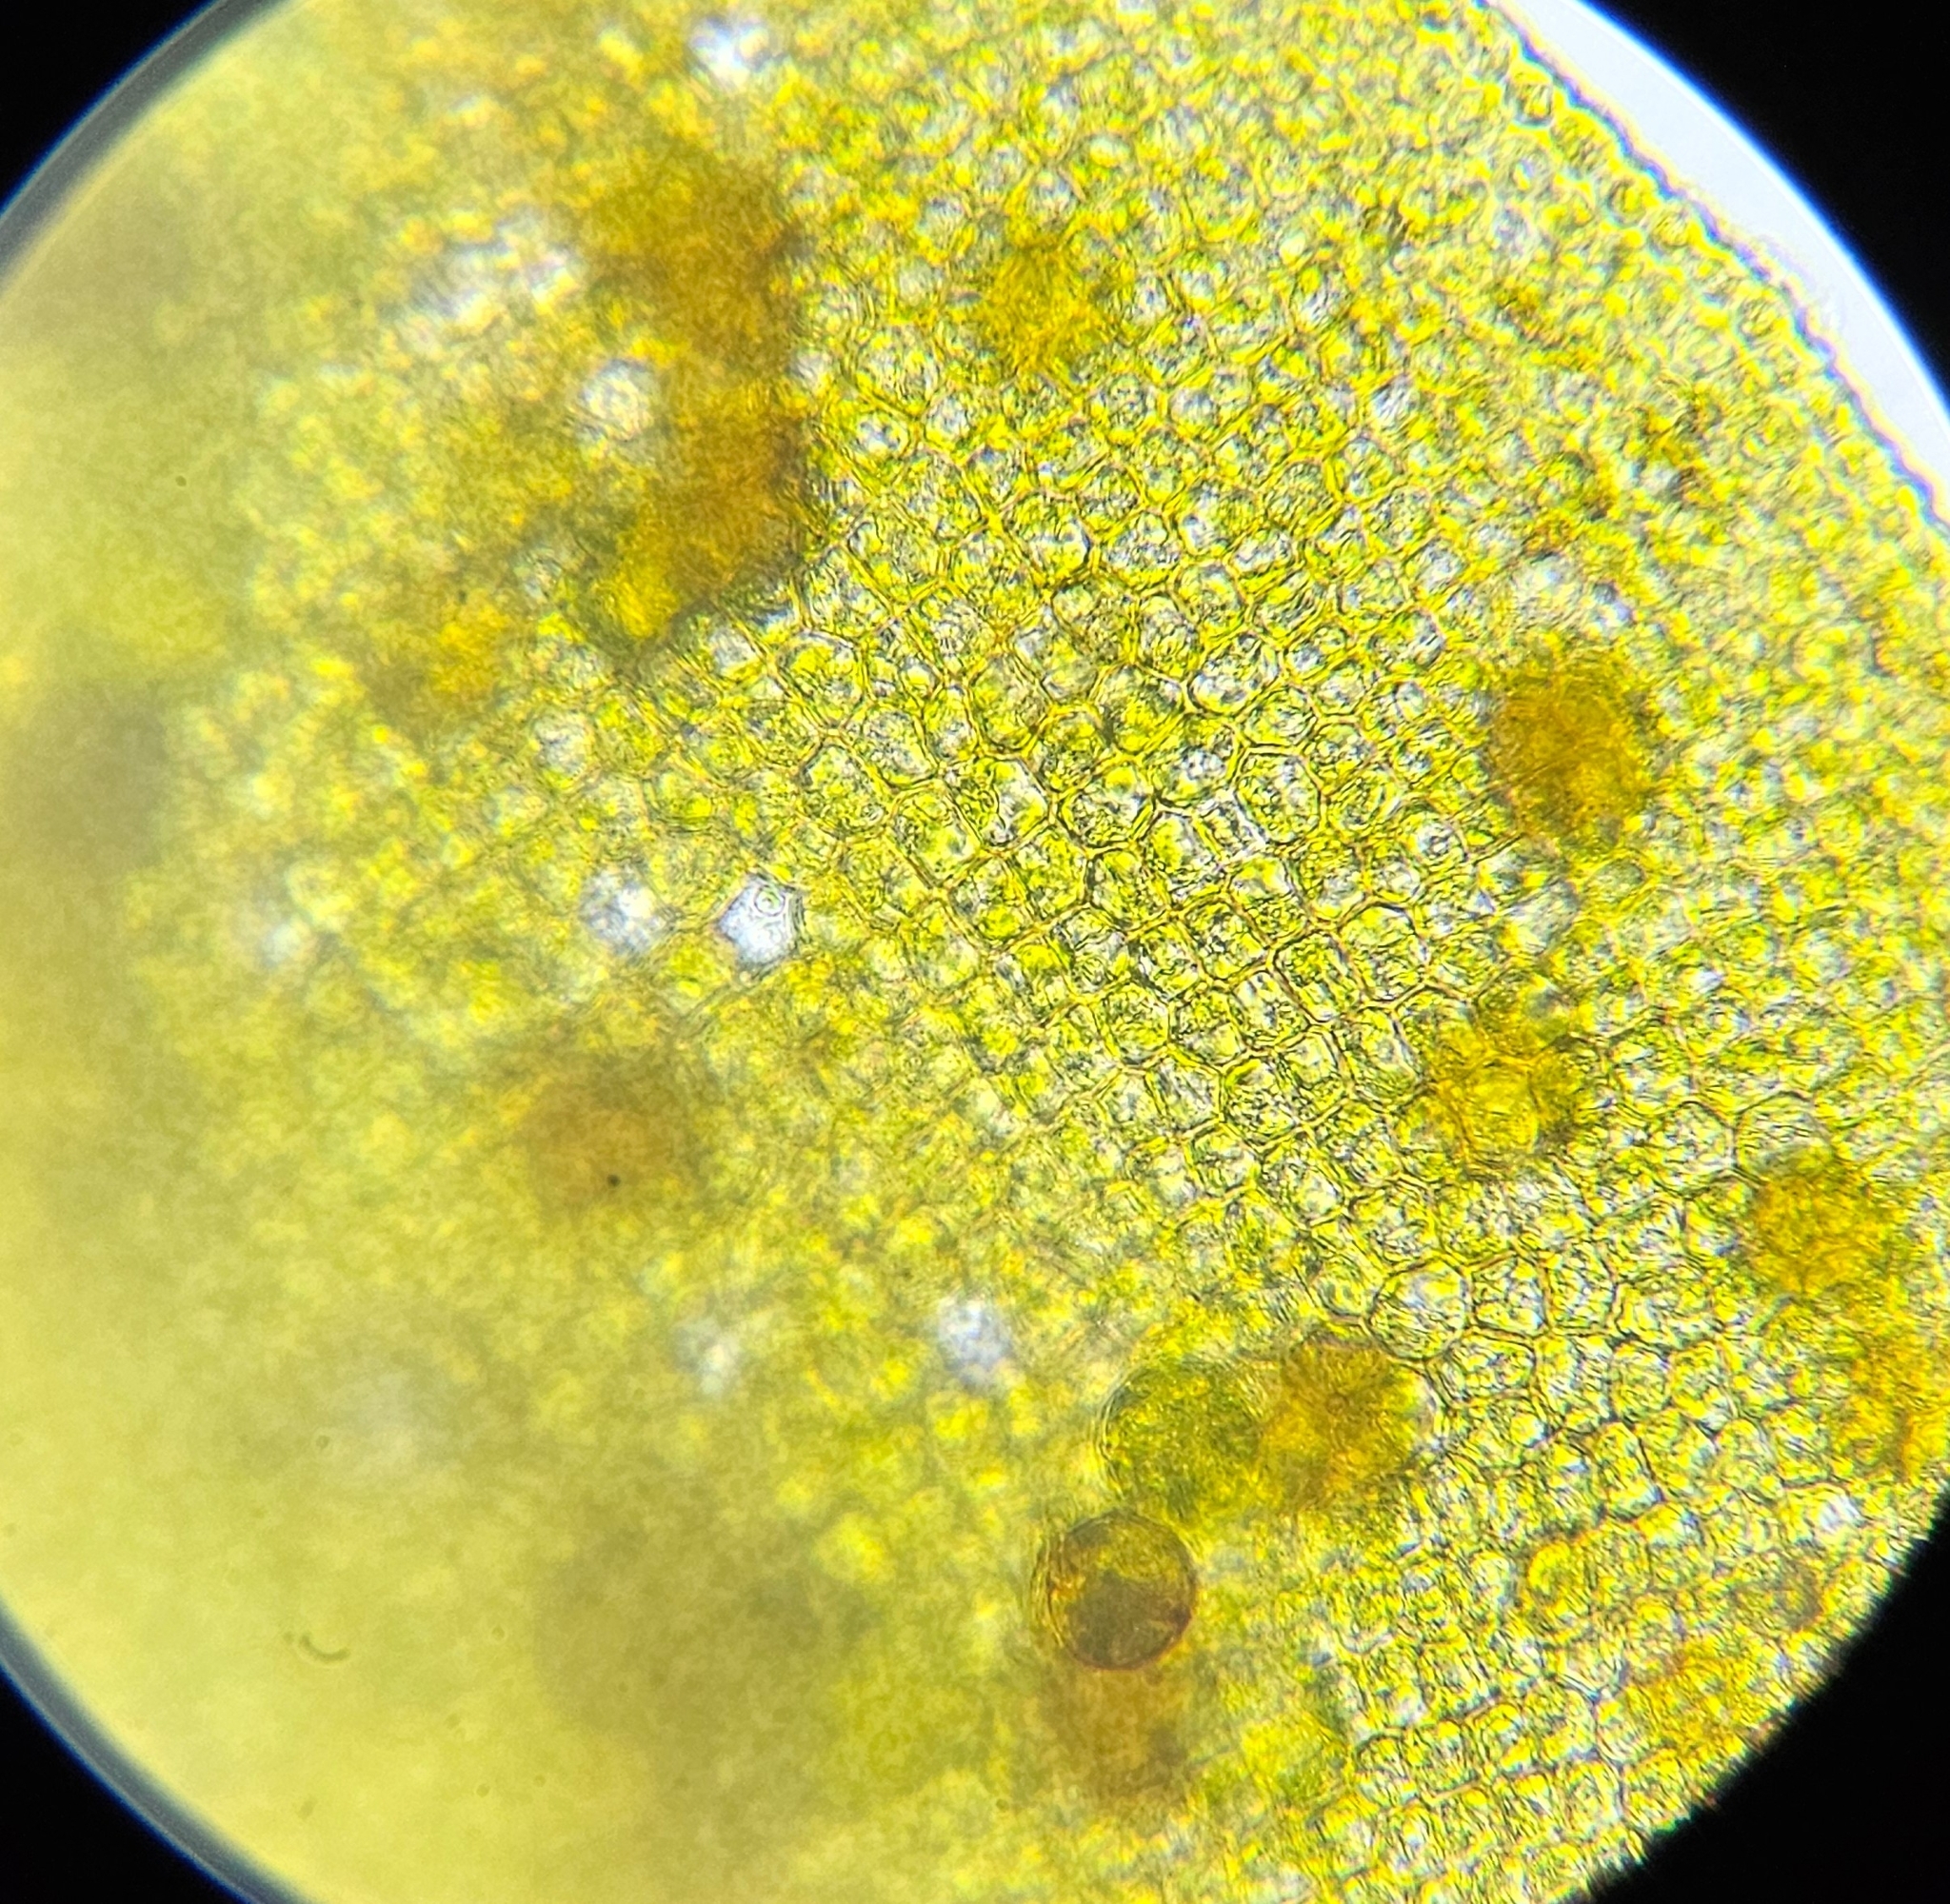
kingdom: Plantae
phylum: Bryophyta
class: Bryopsida
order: Pottiales
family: Pottiaceae
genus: Syntrichia
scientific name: Syntrichia latifolia
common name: Water screw-moss
